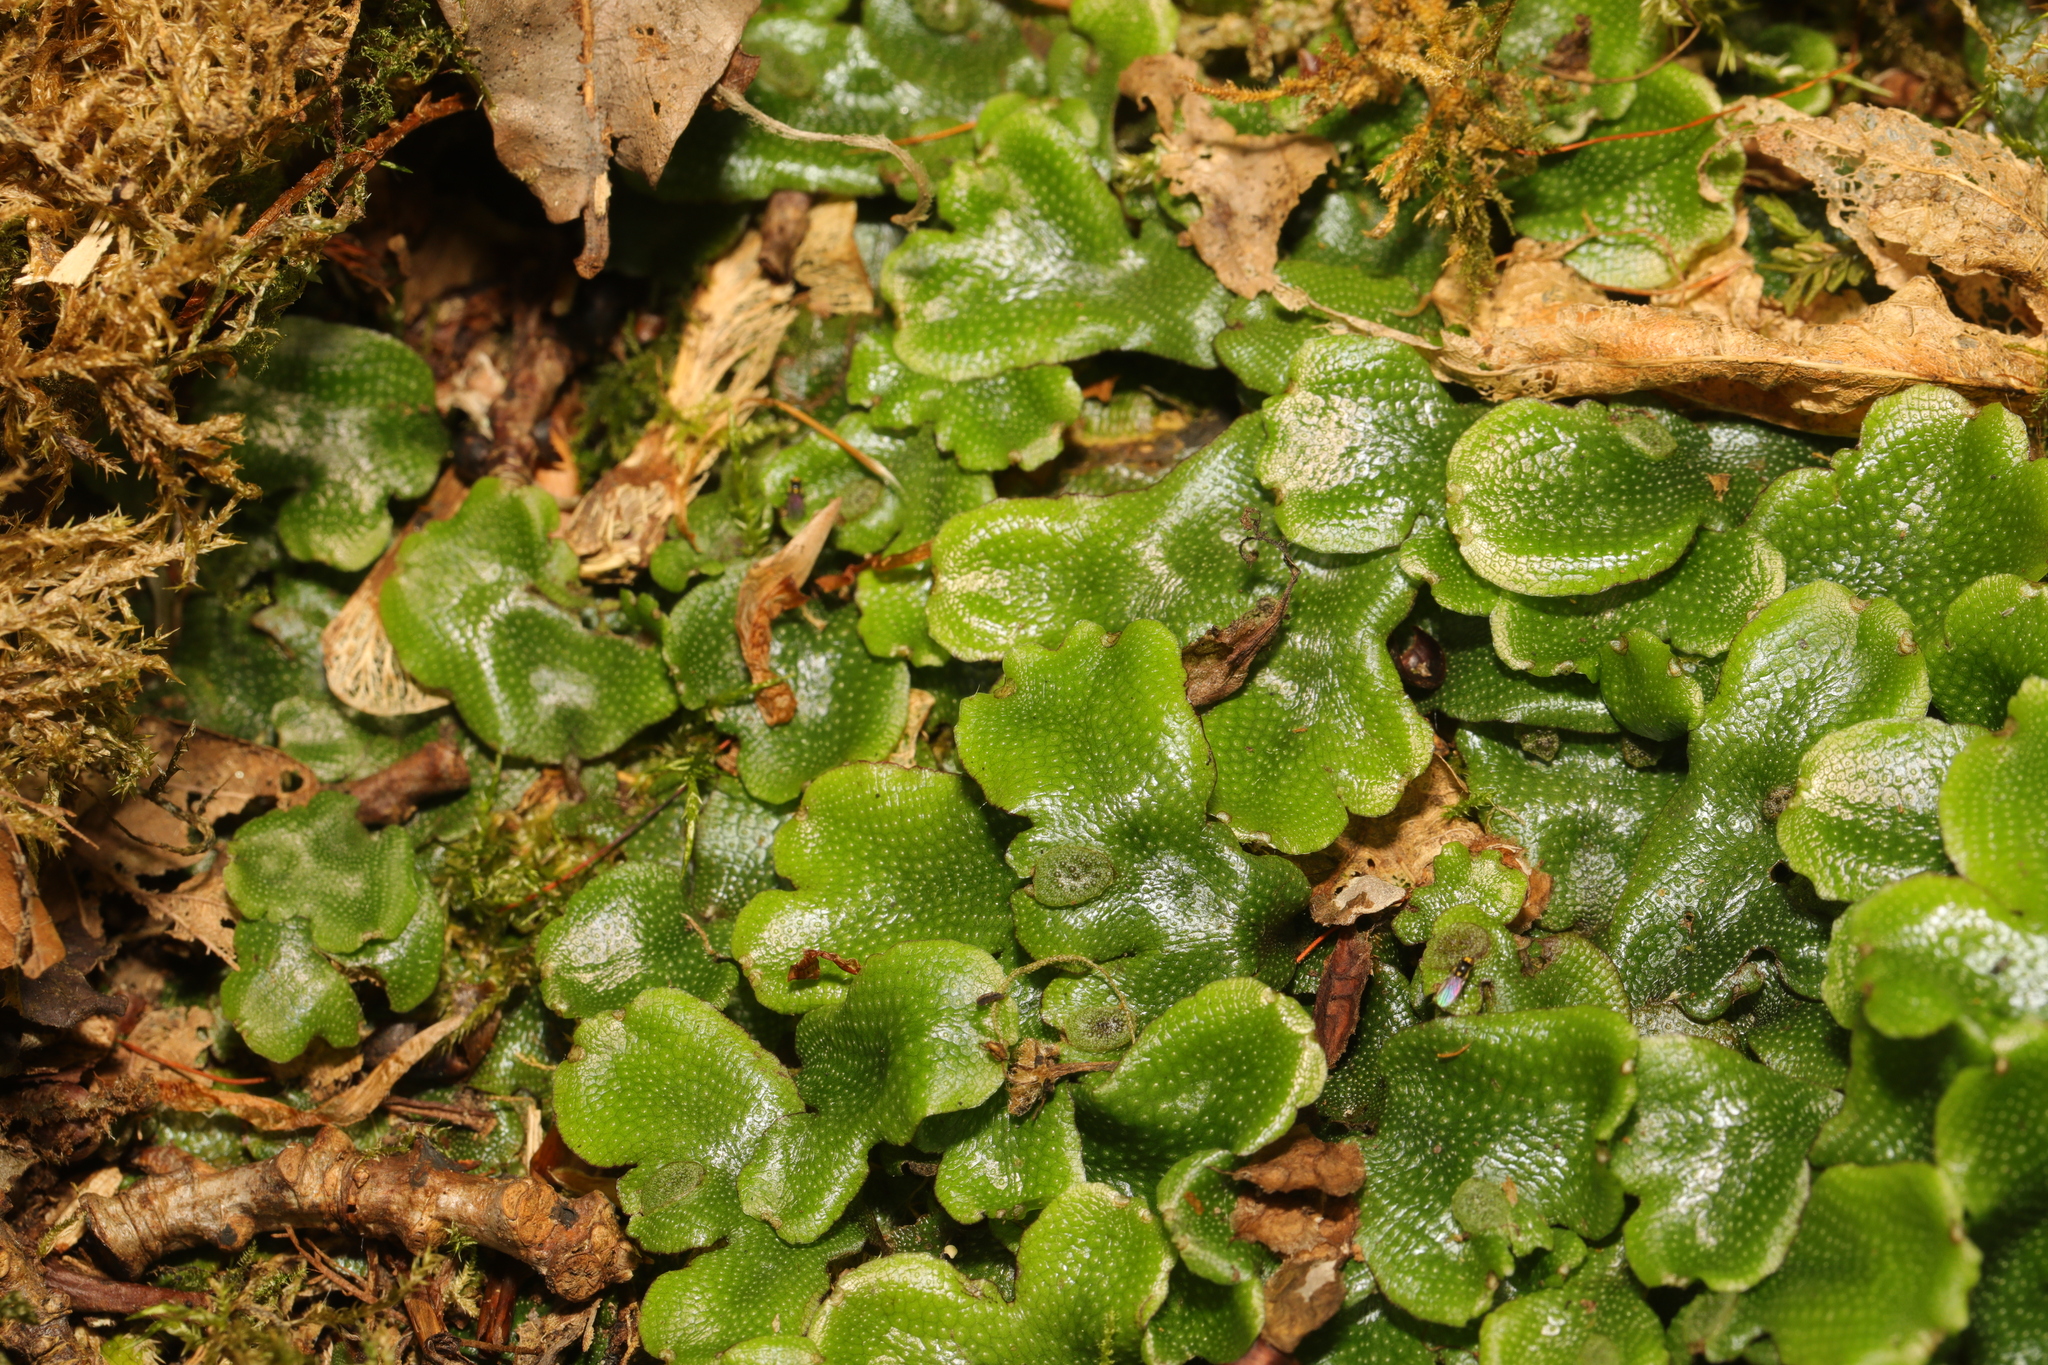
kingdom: Plantae
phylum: Marchantiophyta
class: Marchantiopsida
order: Marchantiales
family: Conocephalaceae
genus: Conocephalum
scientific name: Conocephalum conicum
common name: Great scented liverwort
